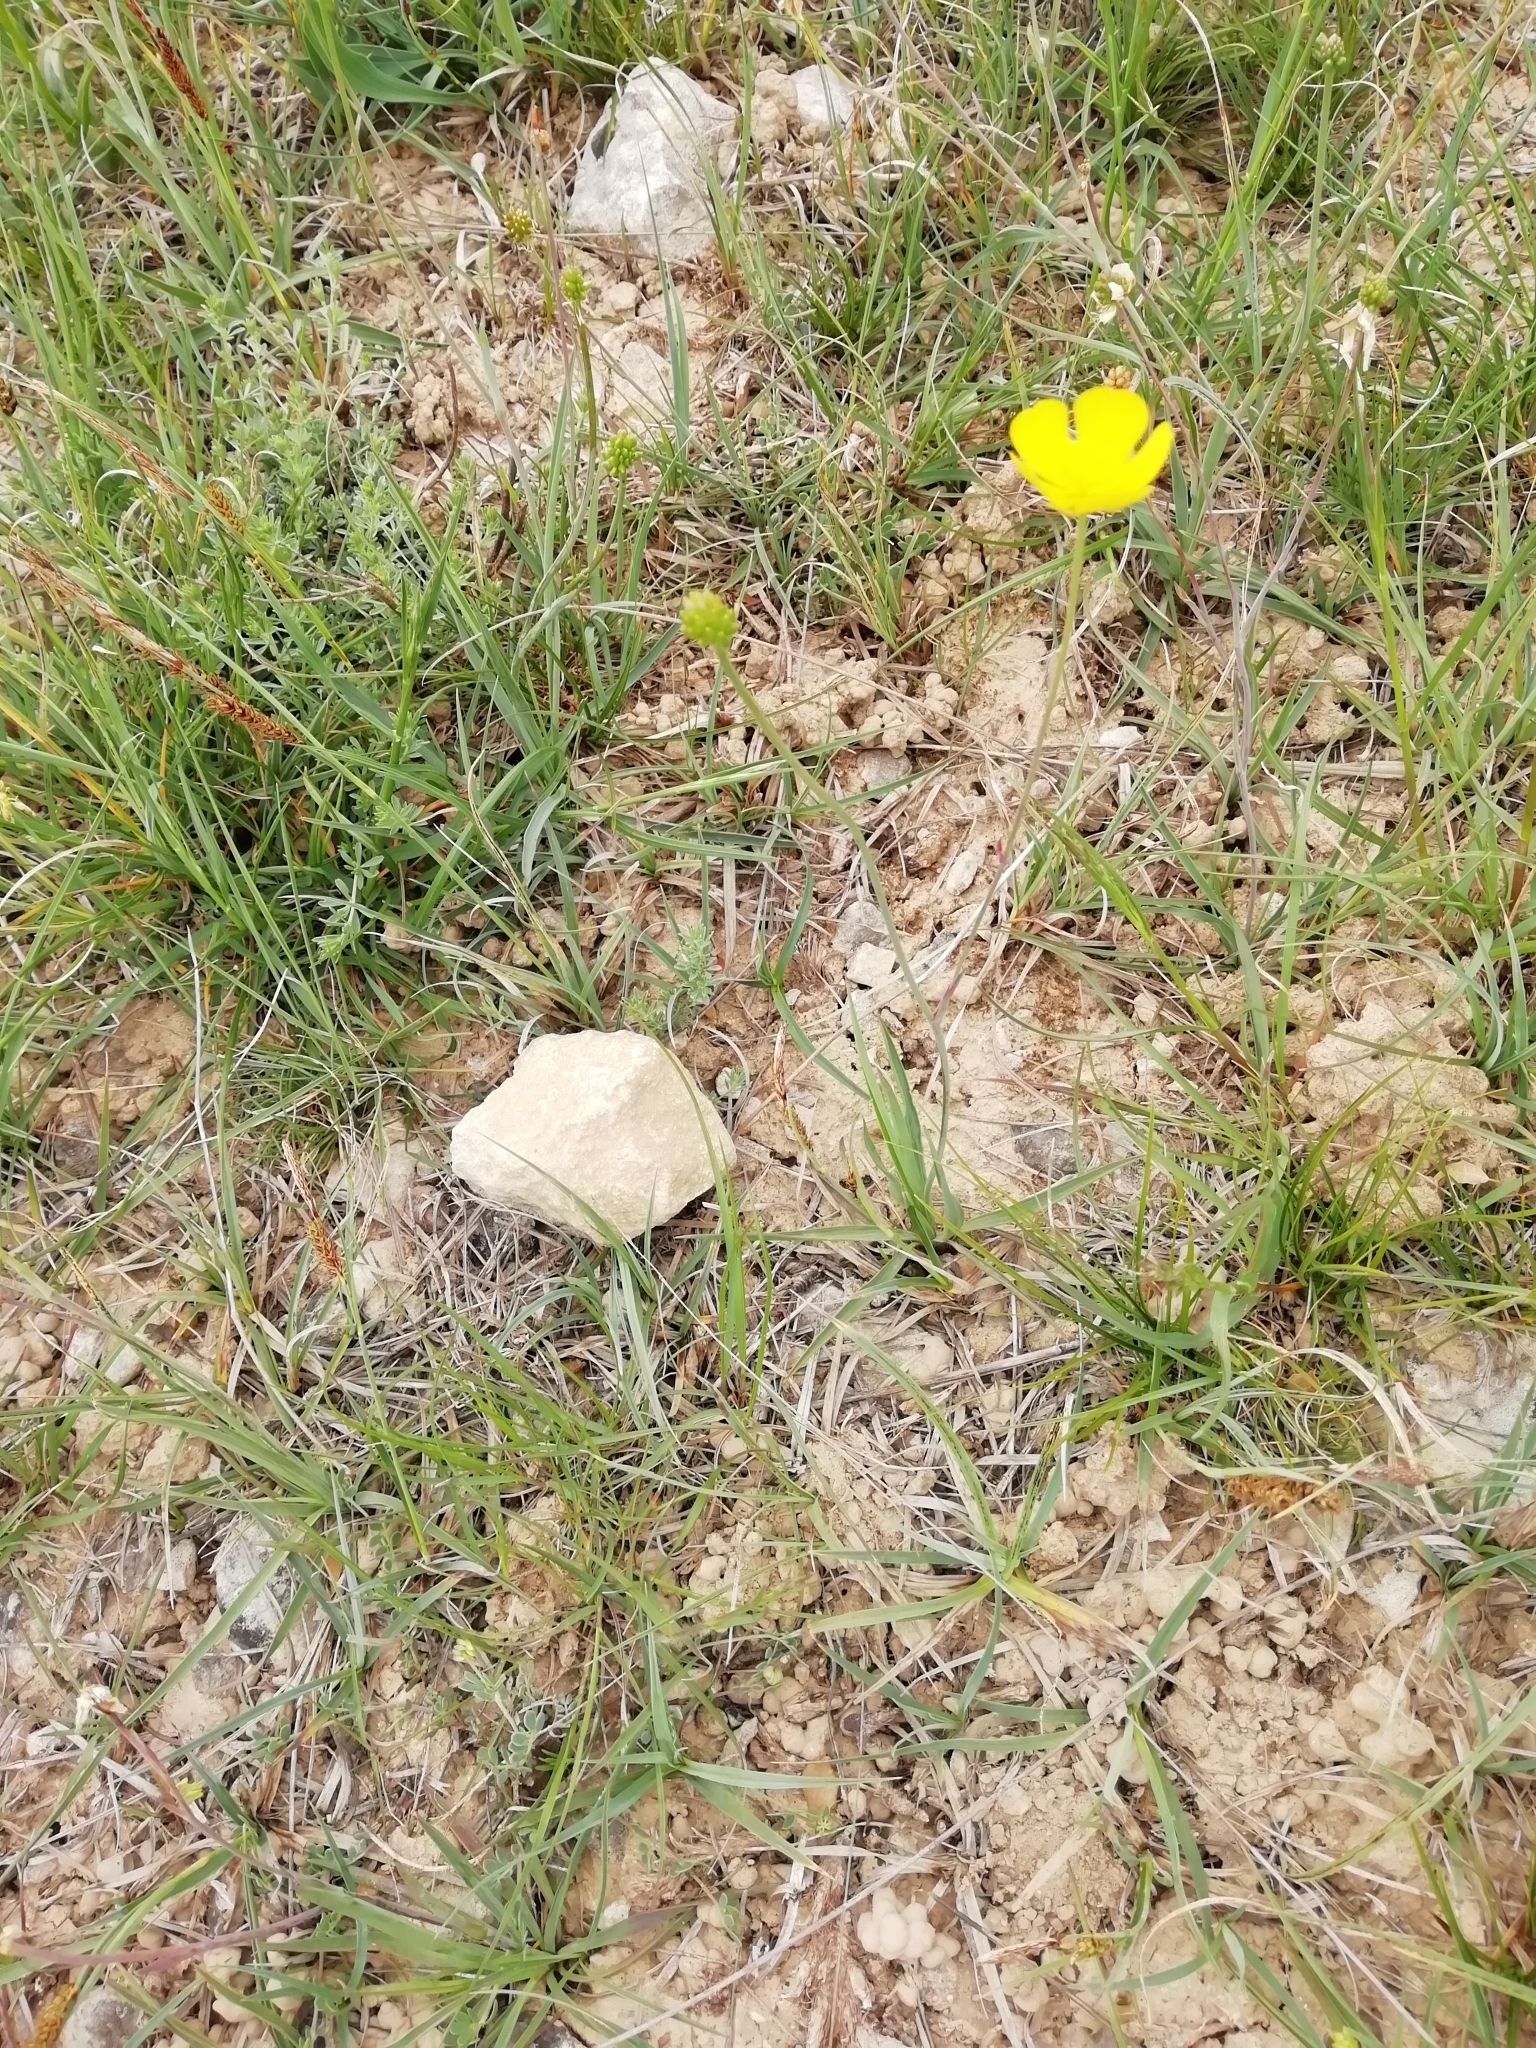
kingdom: Plantae
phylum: Tracheophyta
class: Magnoliopsida
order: Ranunculales
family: Ranunculaceae
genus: Ranunculus
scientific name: Ranunculus gramineus
